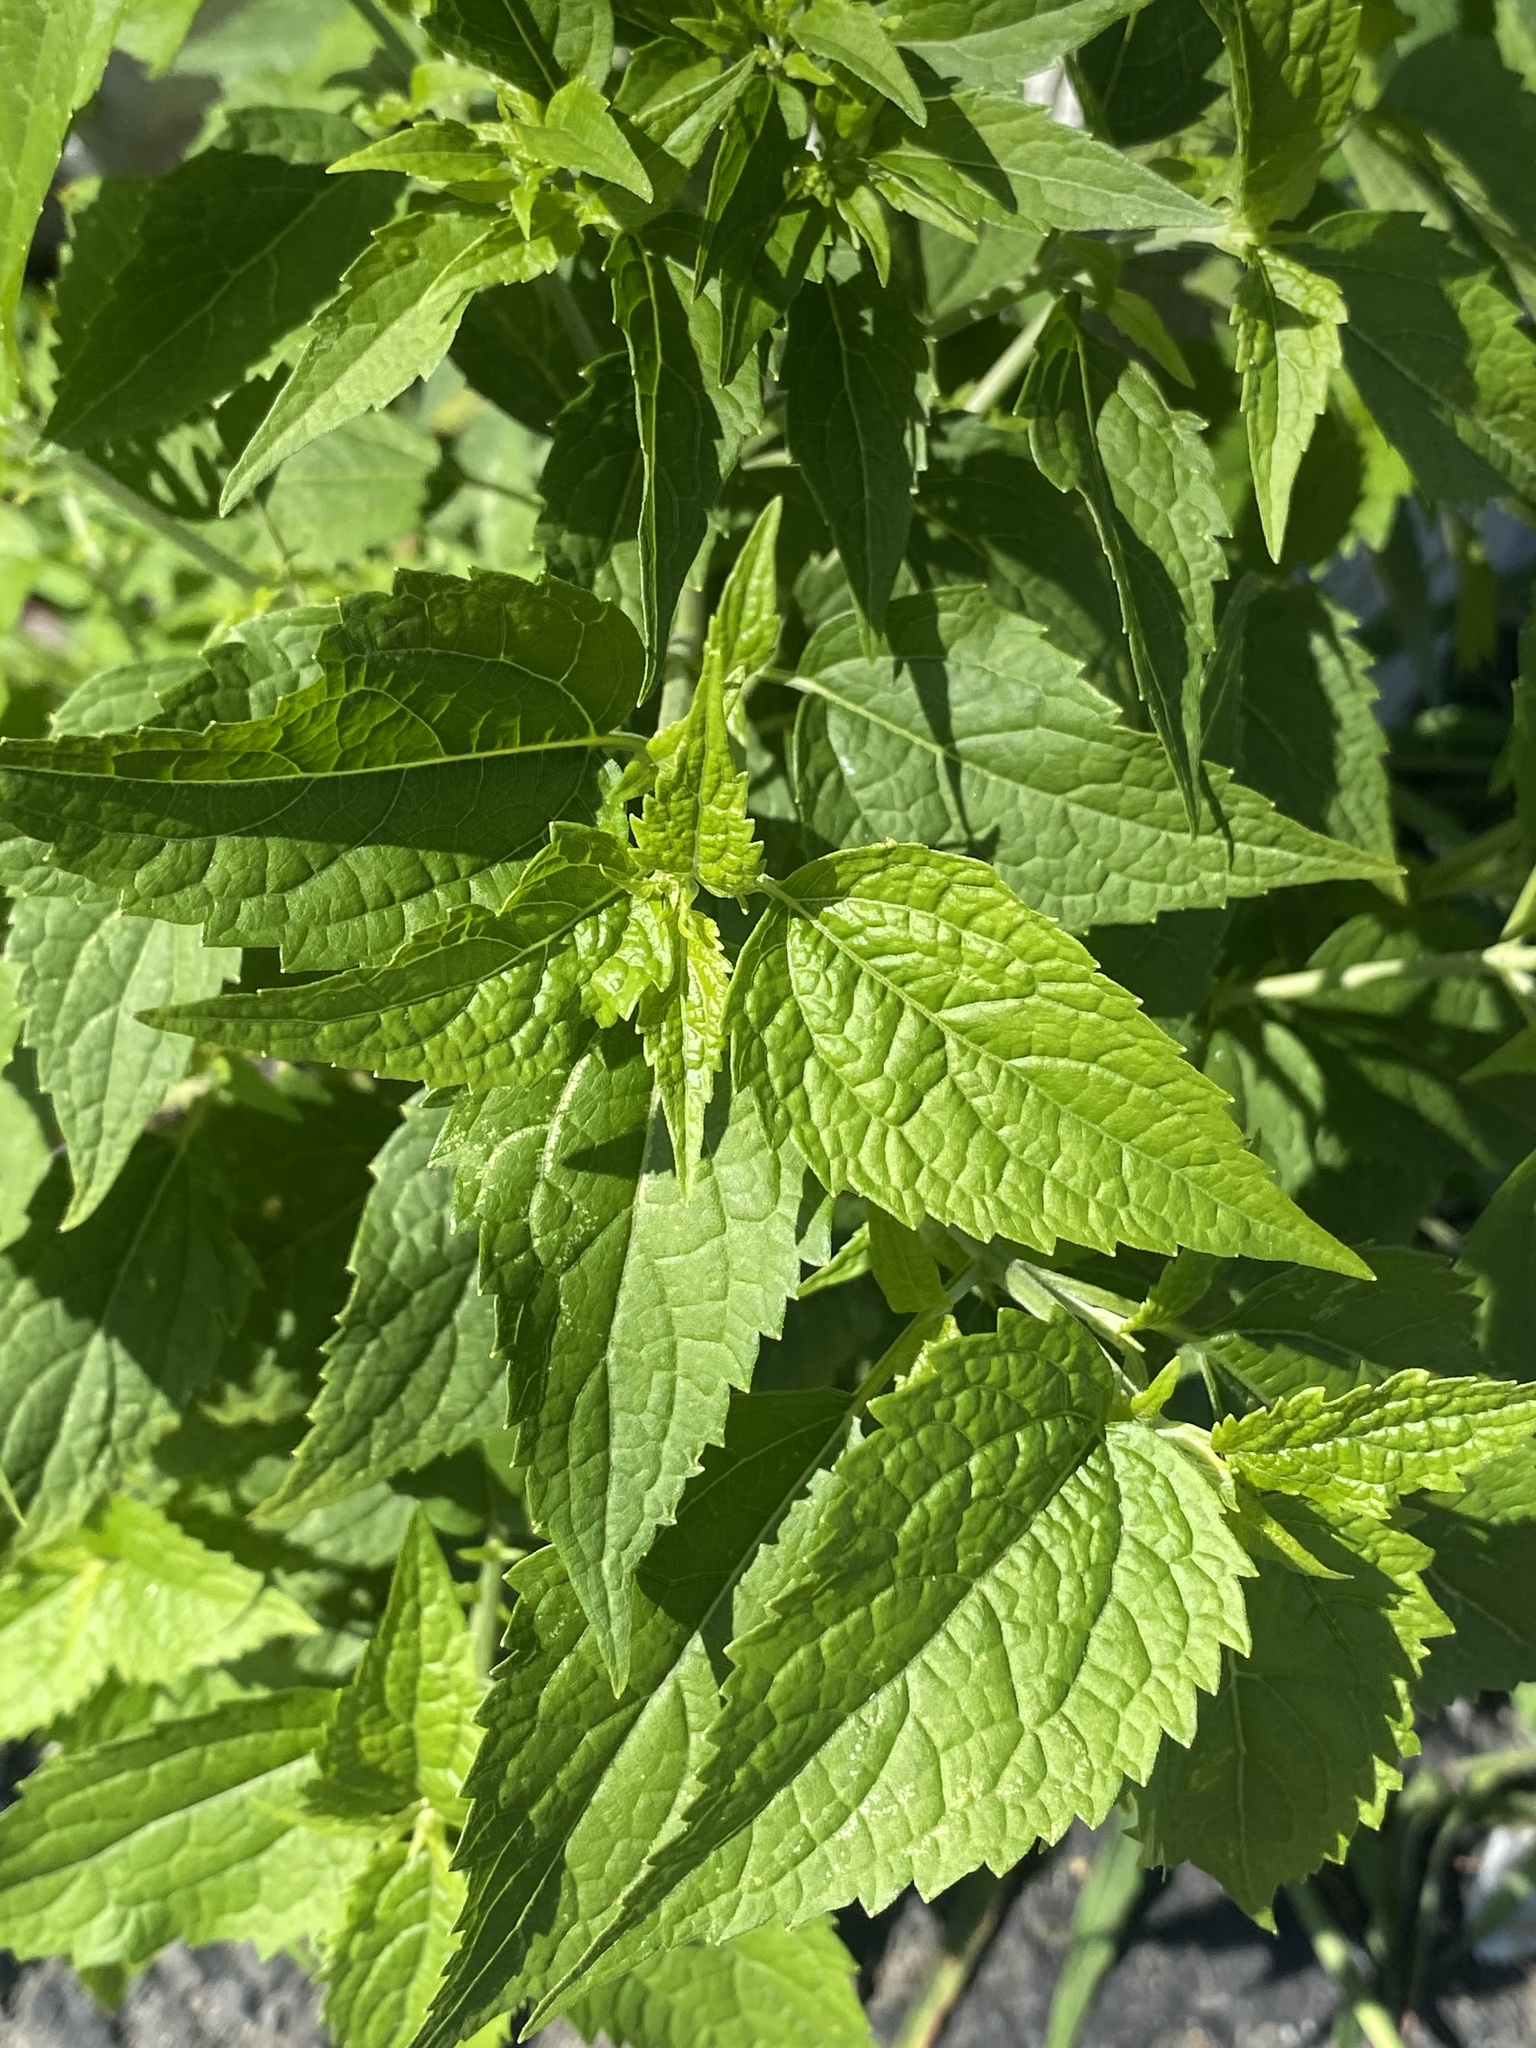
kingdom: Plantae
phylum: Tracheophyta
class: Magnoliopsida
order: Asterales
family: Asteraceae
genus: Ageratina
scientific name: Ageratina altissima
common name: White snakeroot
